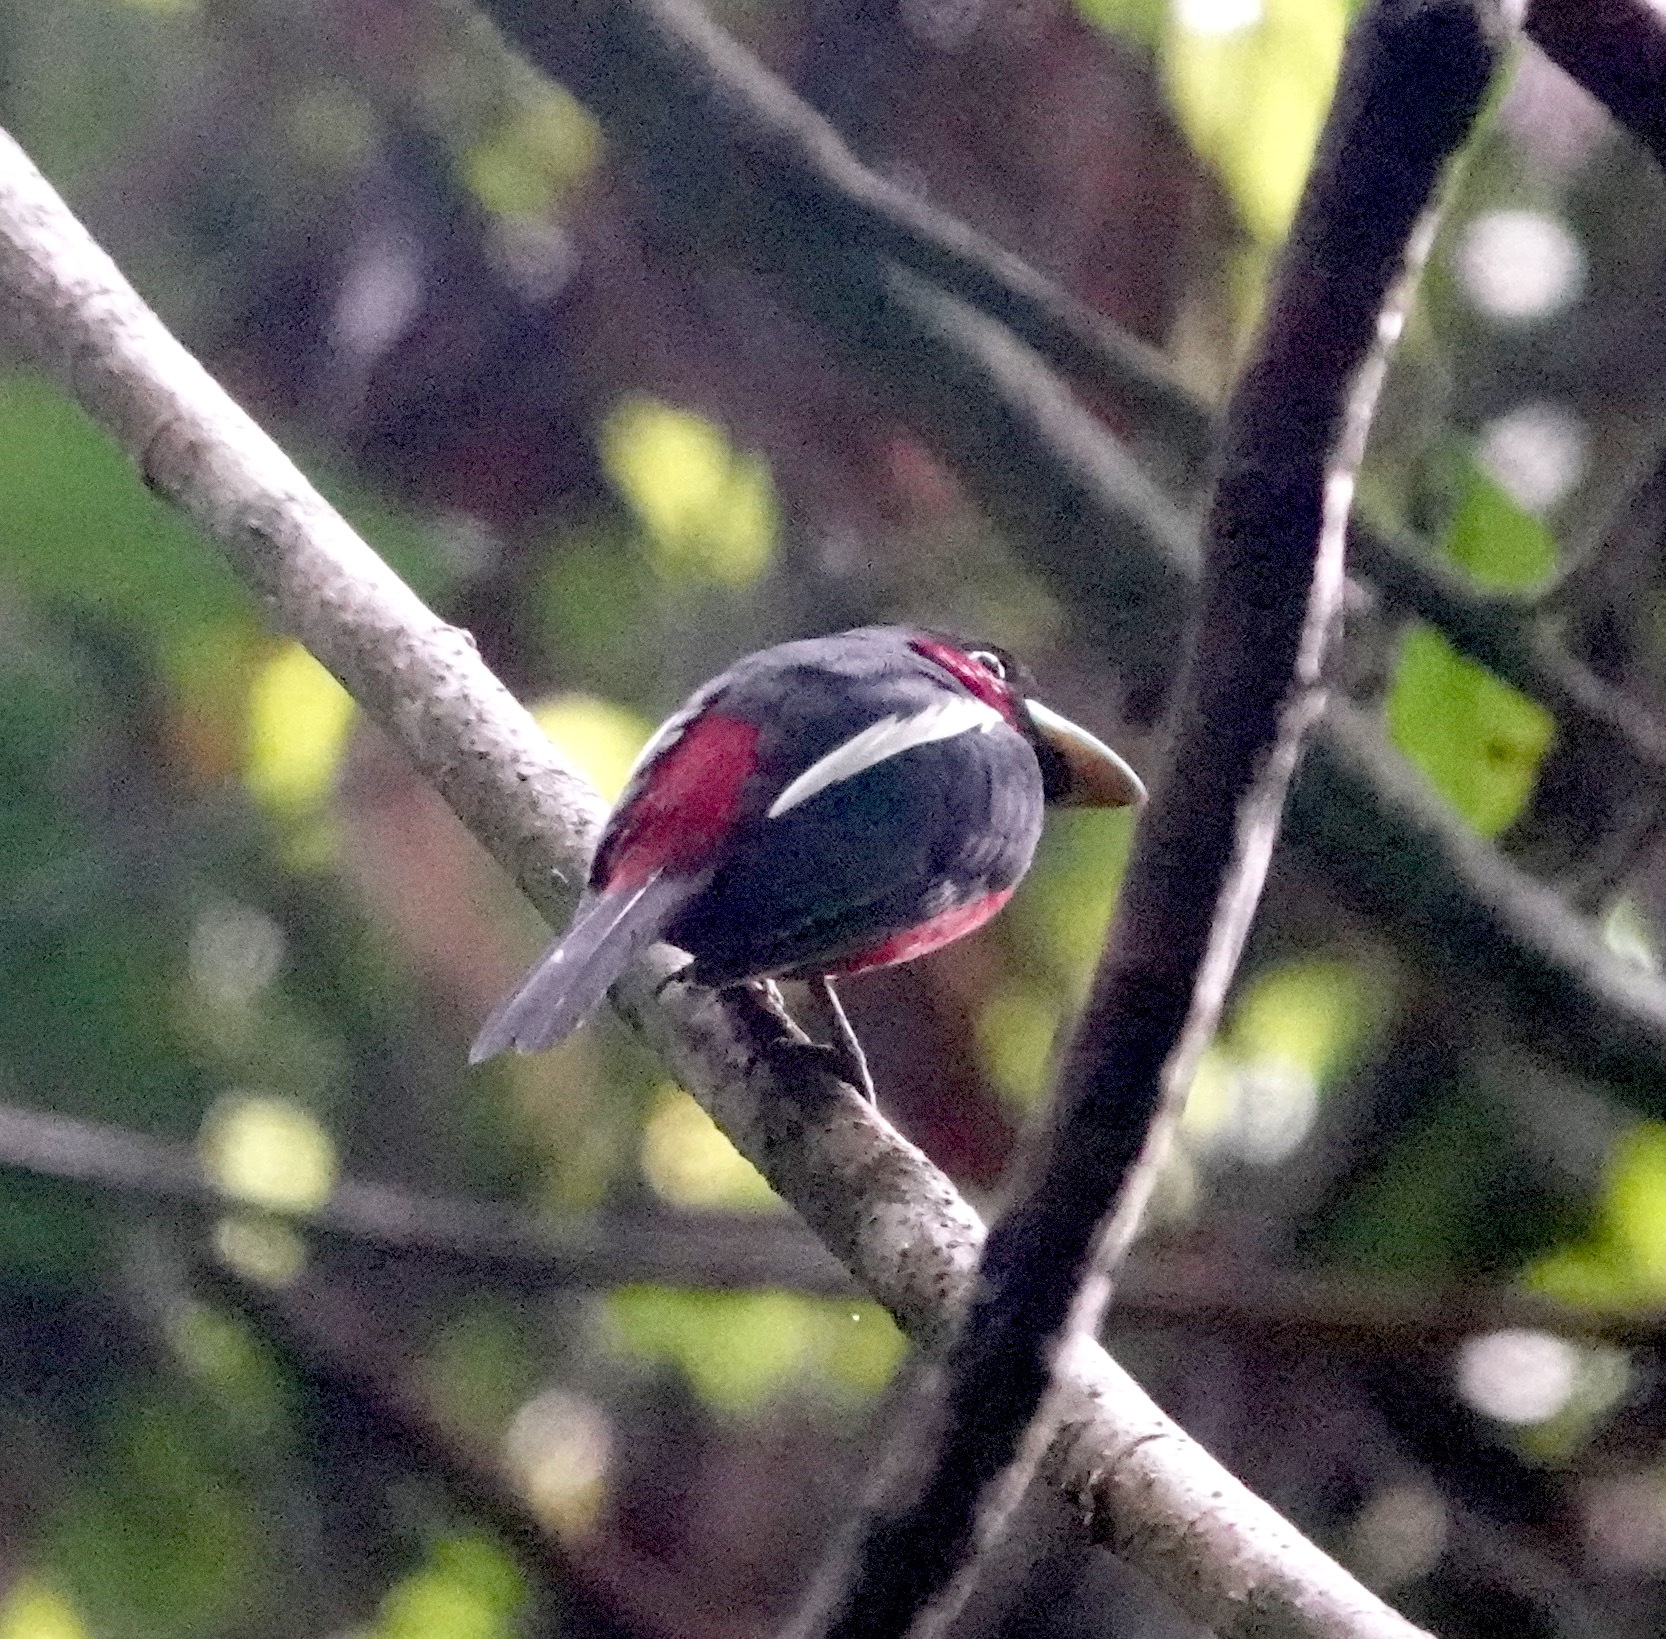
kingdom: Animalia
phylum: Chordata
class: Aves
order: Passeriformes
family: Eurylaimidae
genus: Cymbirhynchus
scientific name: Cymbirhynchus macrorhynchos
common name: Black-and-red broadbill
